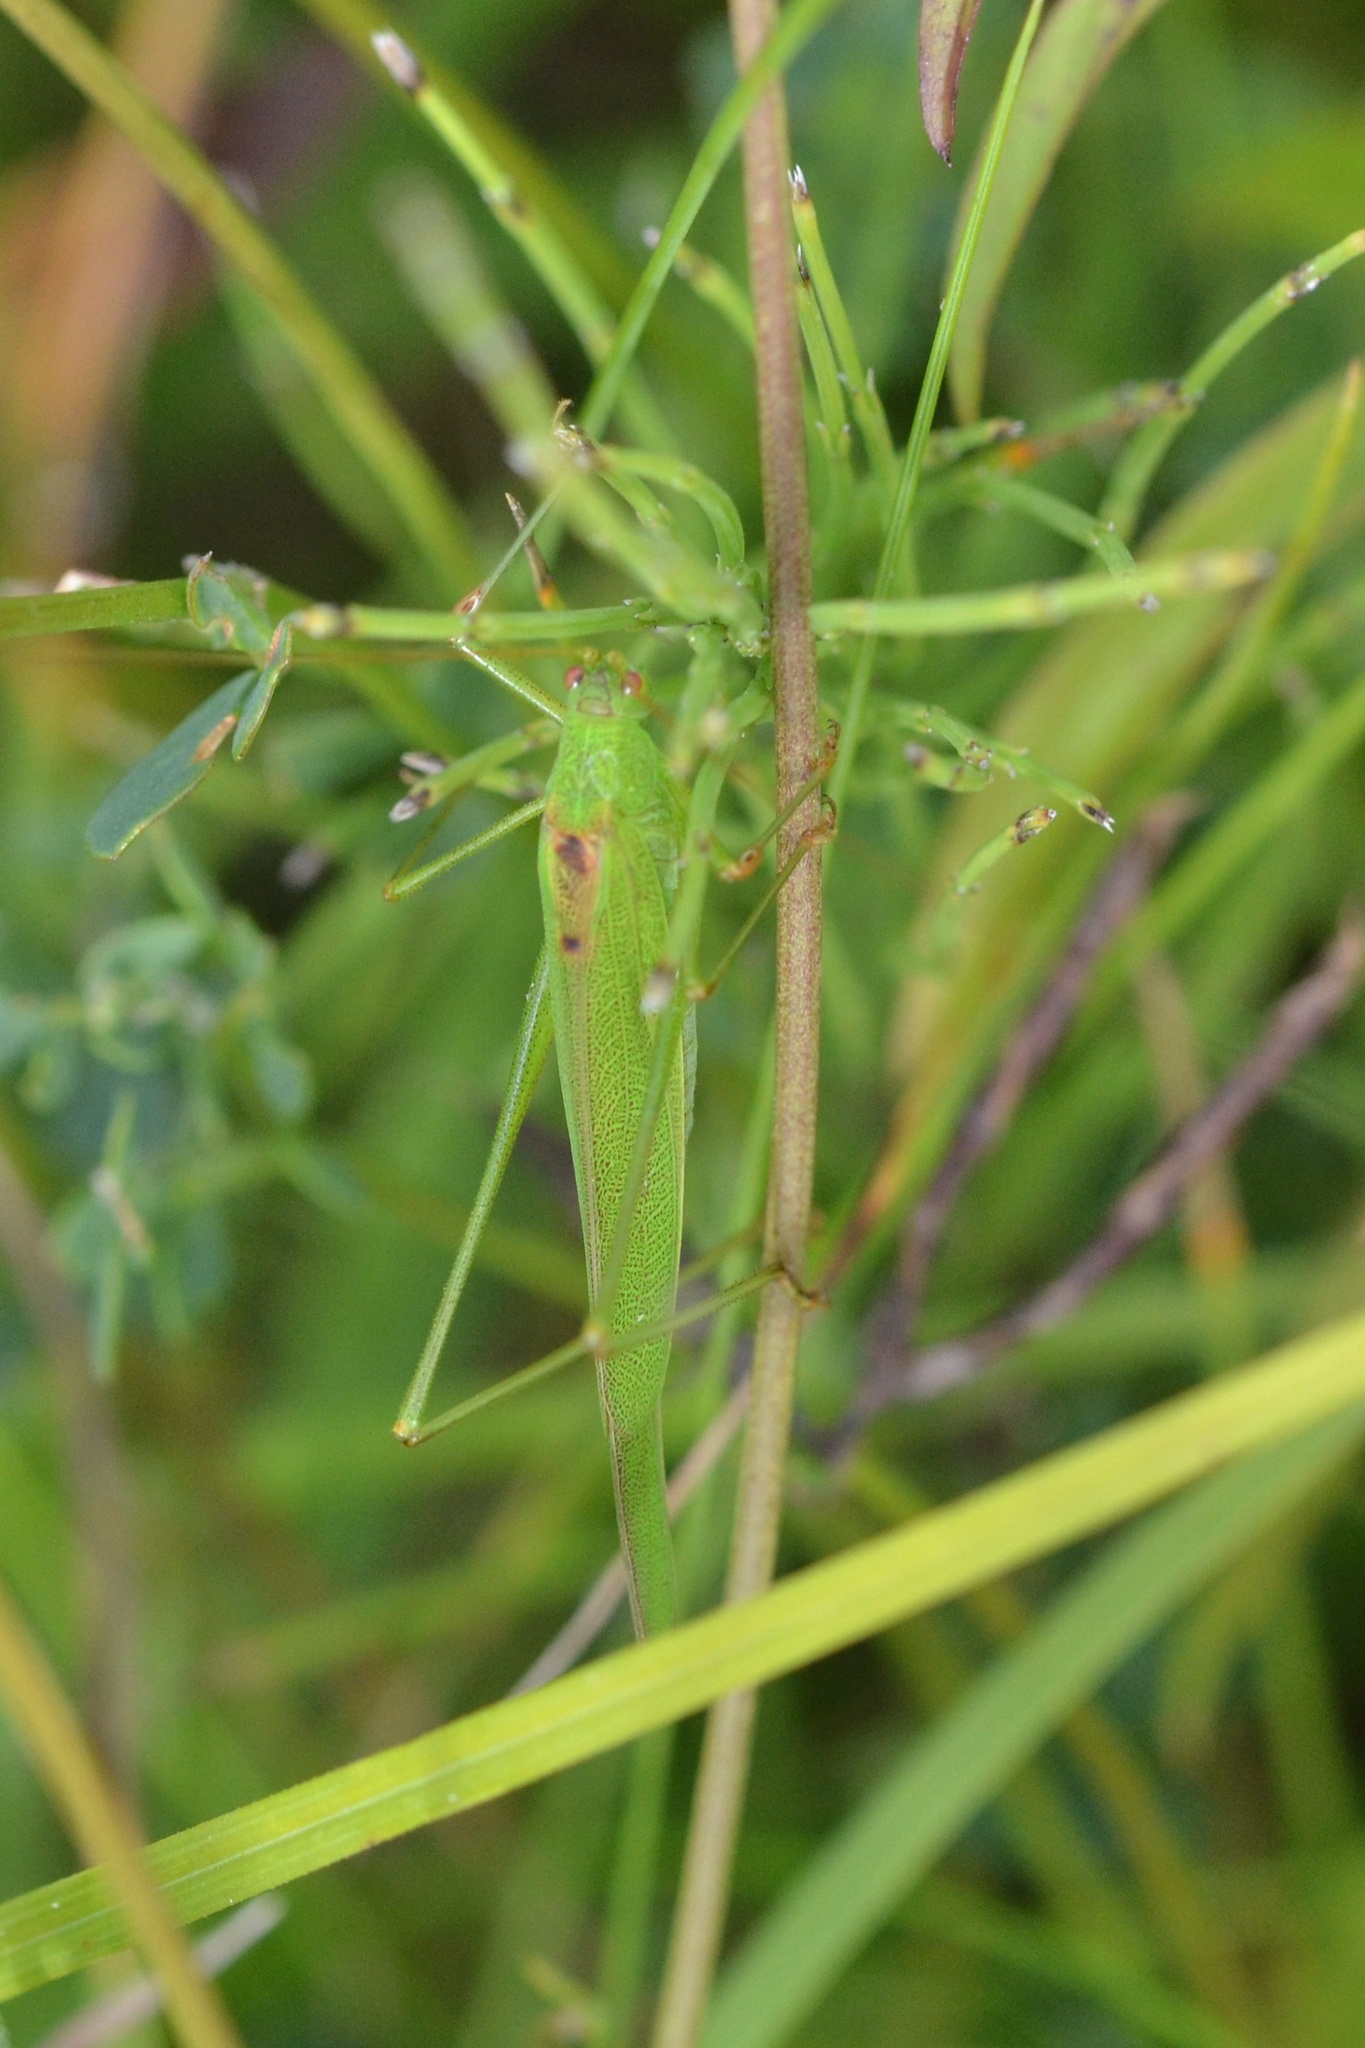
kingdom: Animalia
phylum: Arthropoda
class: Insecta
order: Orthoptera
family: Tettigoniidae
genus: Phaneroptera
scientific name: Phaneroptera falcata
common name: Sickle-bearing bush-cricket
